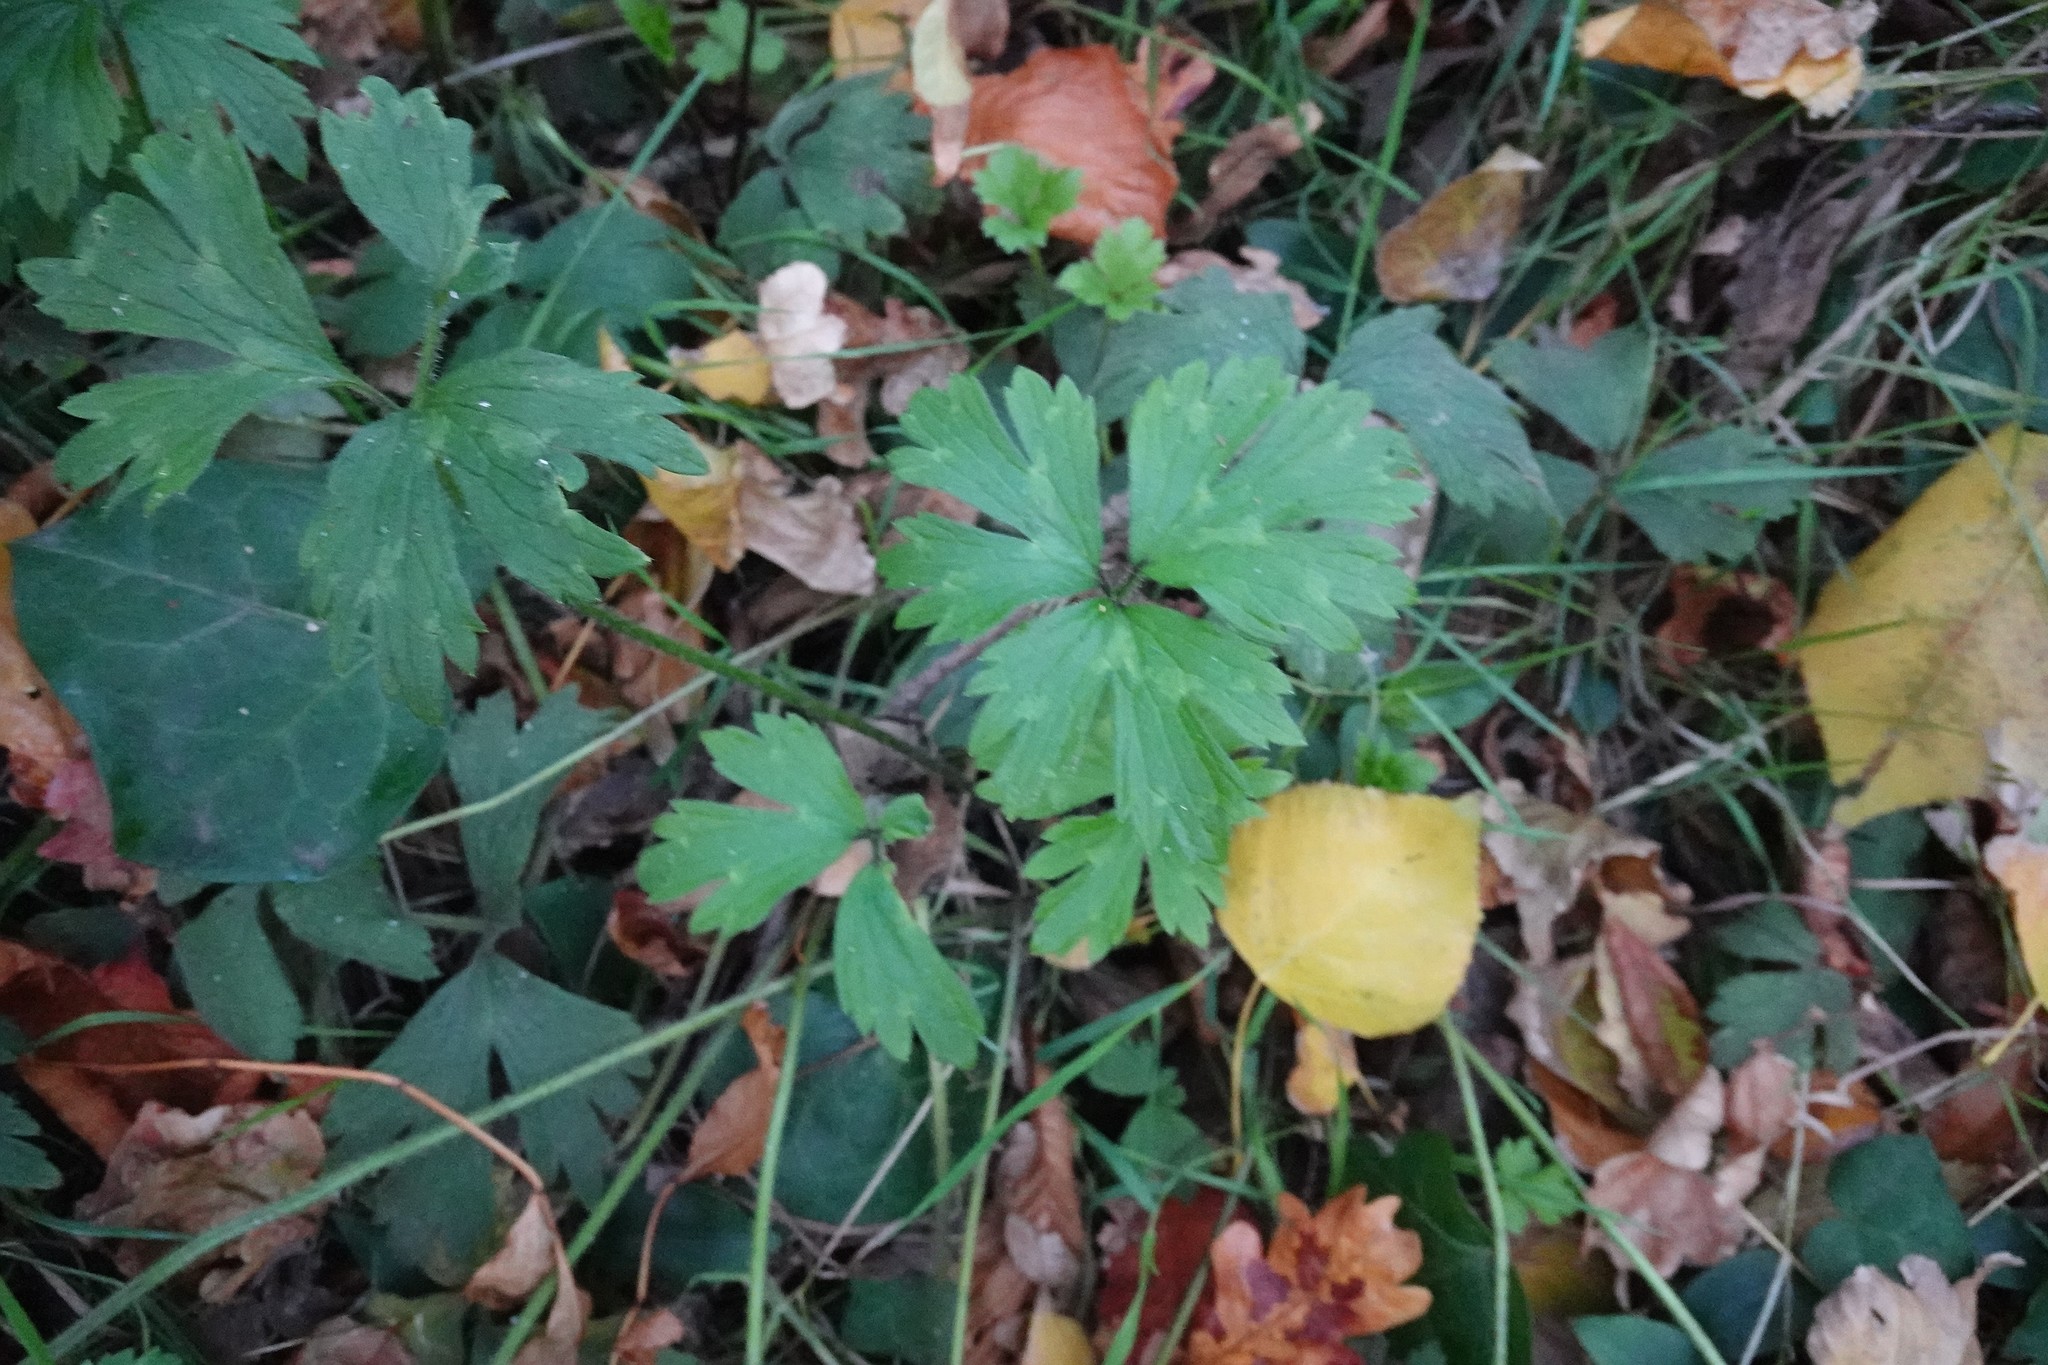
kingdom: Plantae
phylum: Tracheophyta
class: Magnoliopsida
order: Ranunculales
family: Ranunculaceae
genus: Ranunculus
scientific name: Ranunculus repens
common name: Creeping buttercup
